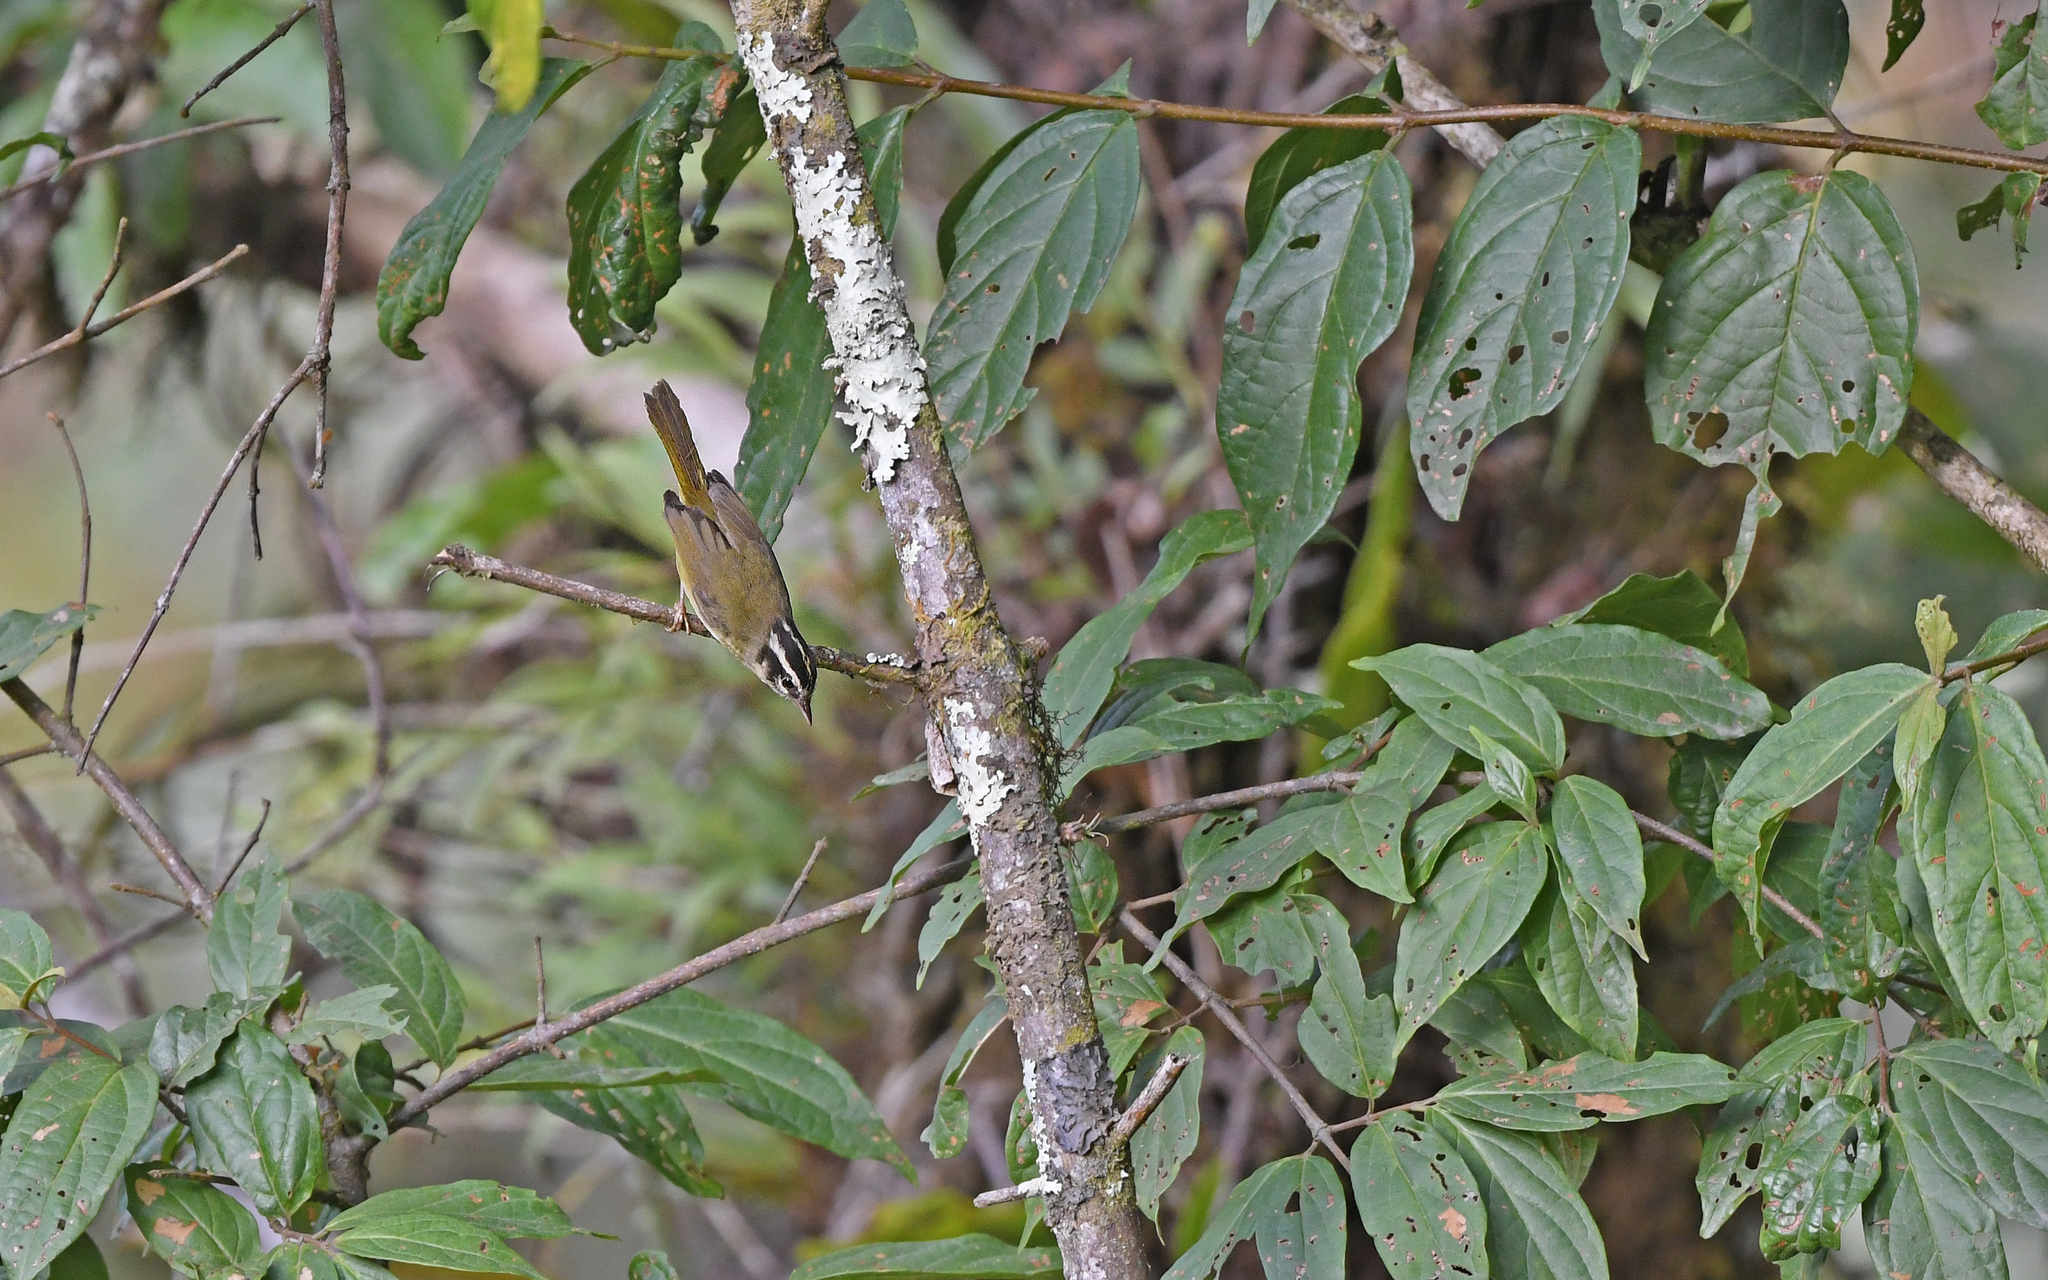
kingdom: Animalia
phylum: Chordata
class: Aves
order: Passeriformes
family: Parulidae
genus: Basileuterus
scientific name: Basileuterus tristriatus
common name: Three-striped warbler
